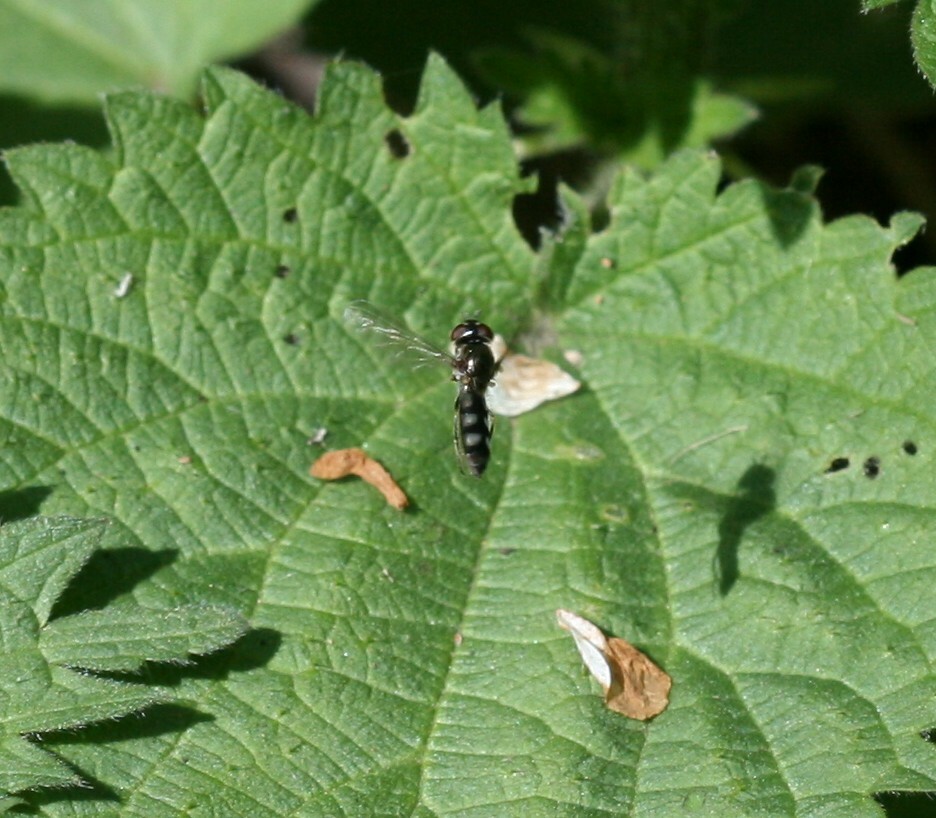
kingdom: Animalia
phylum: Arthropoda
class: Insecta
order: Diptera
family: Syrphidae
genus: Platycheirus
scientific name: Platycheirus albimanus
